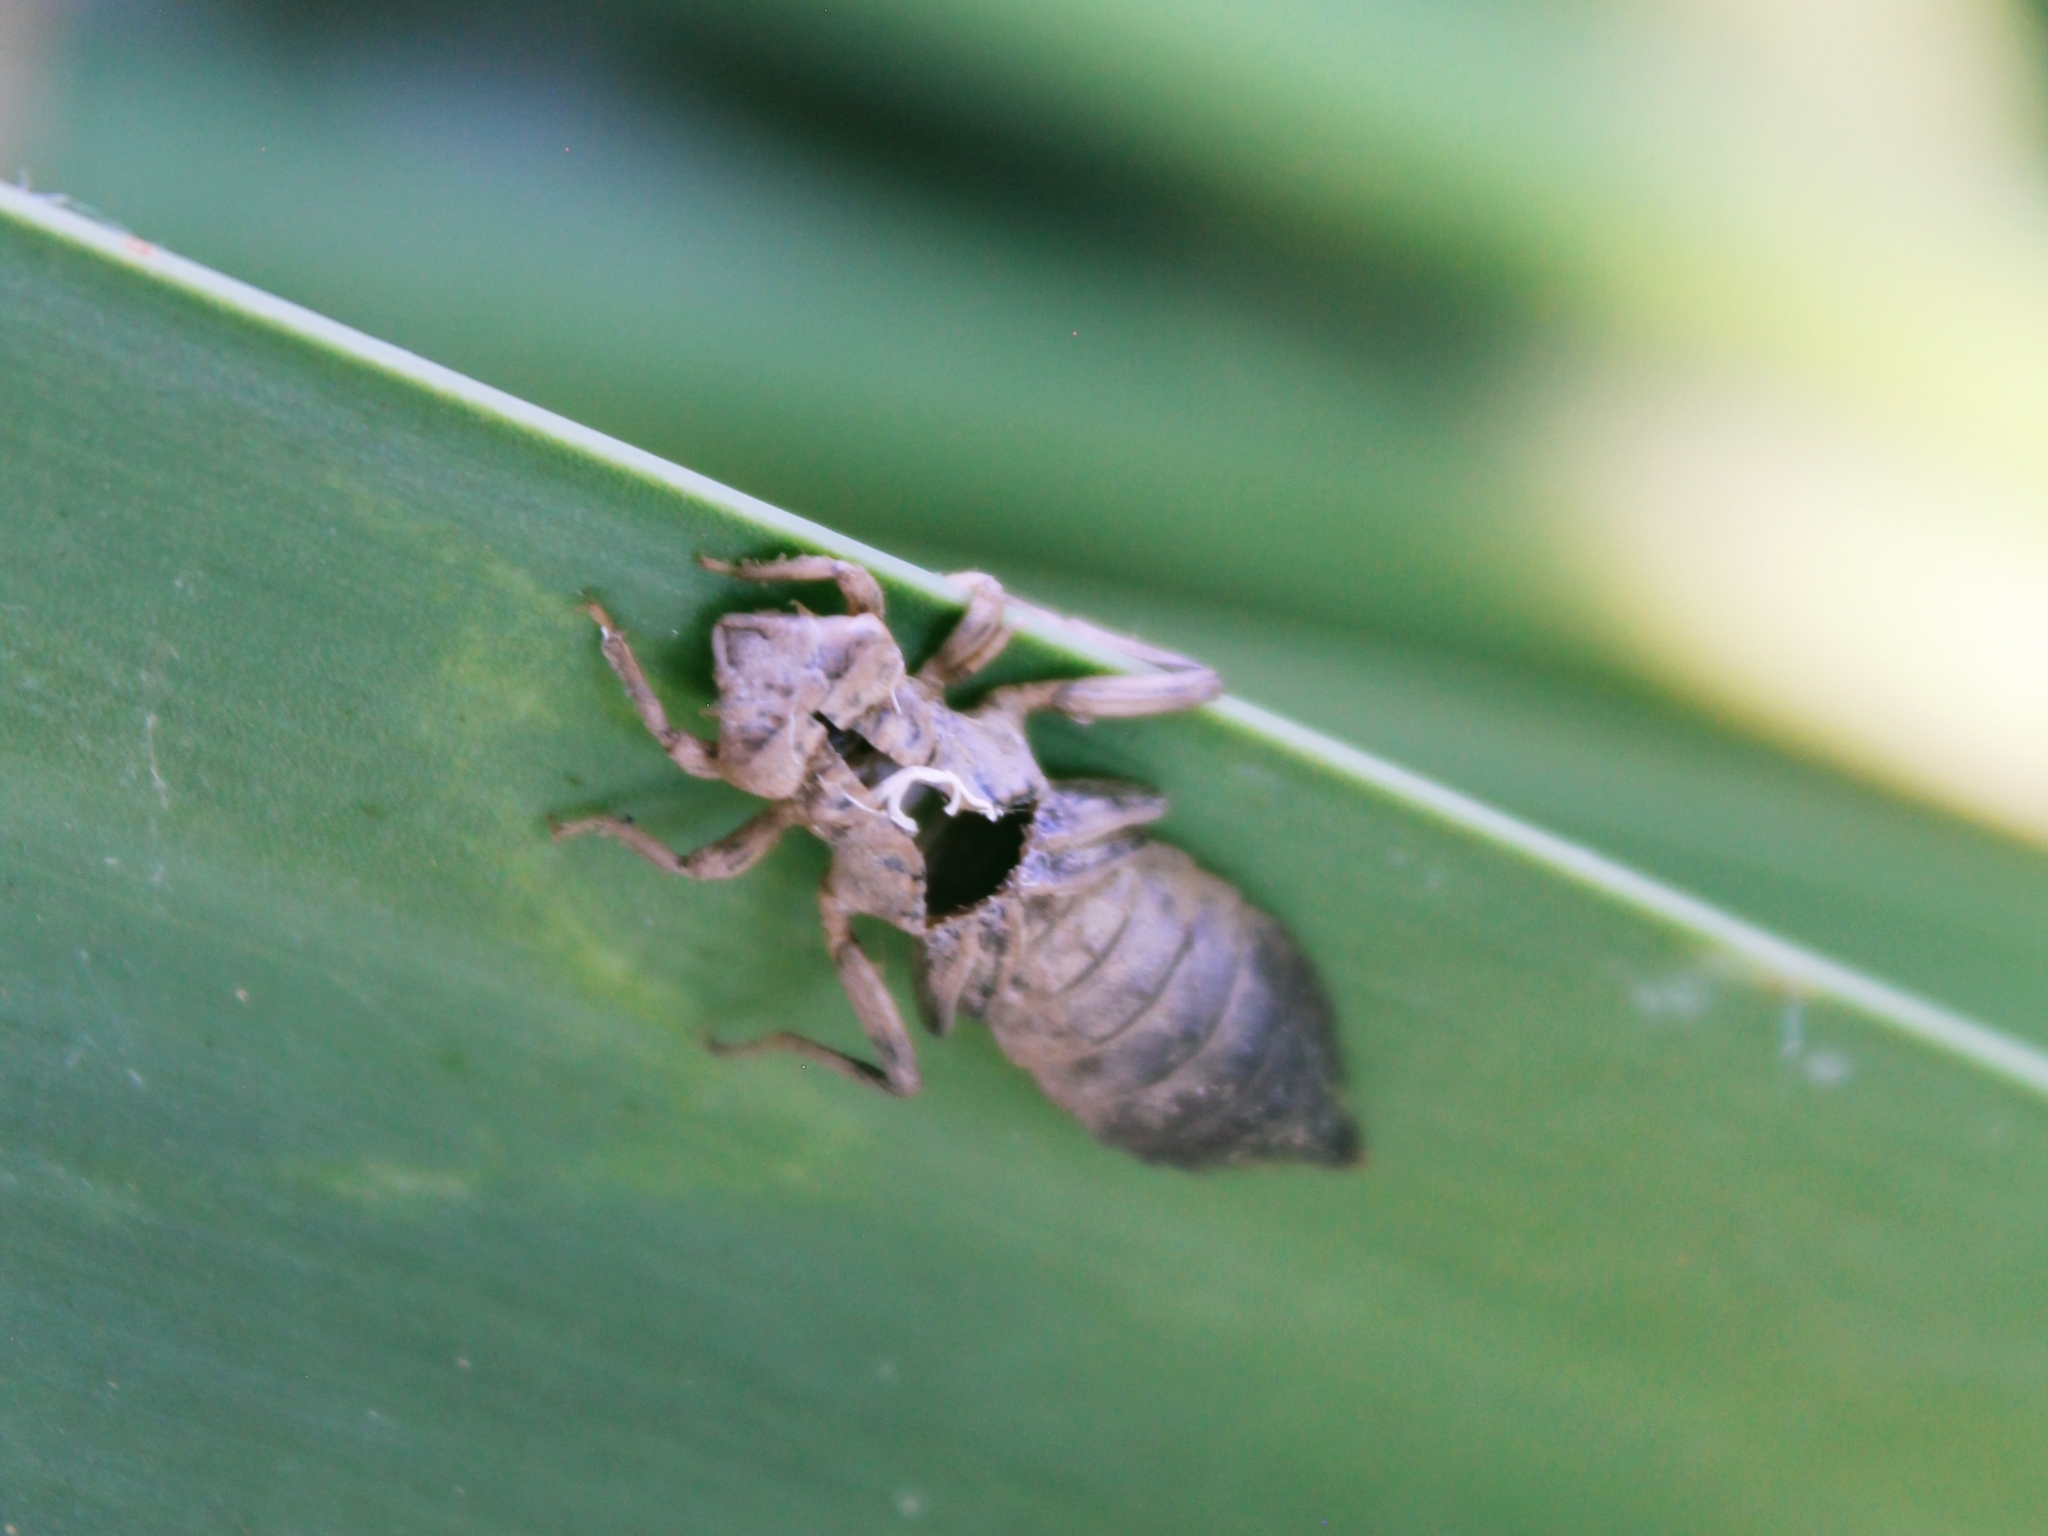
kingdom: Animalia
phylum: Arthropoda
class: Insecta
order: Odonata
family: Gomphidae
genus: Onychogomphus
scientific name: Onychogomphus
